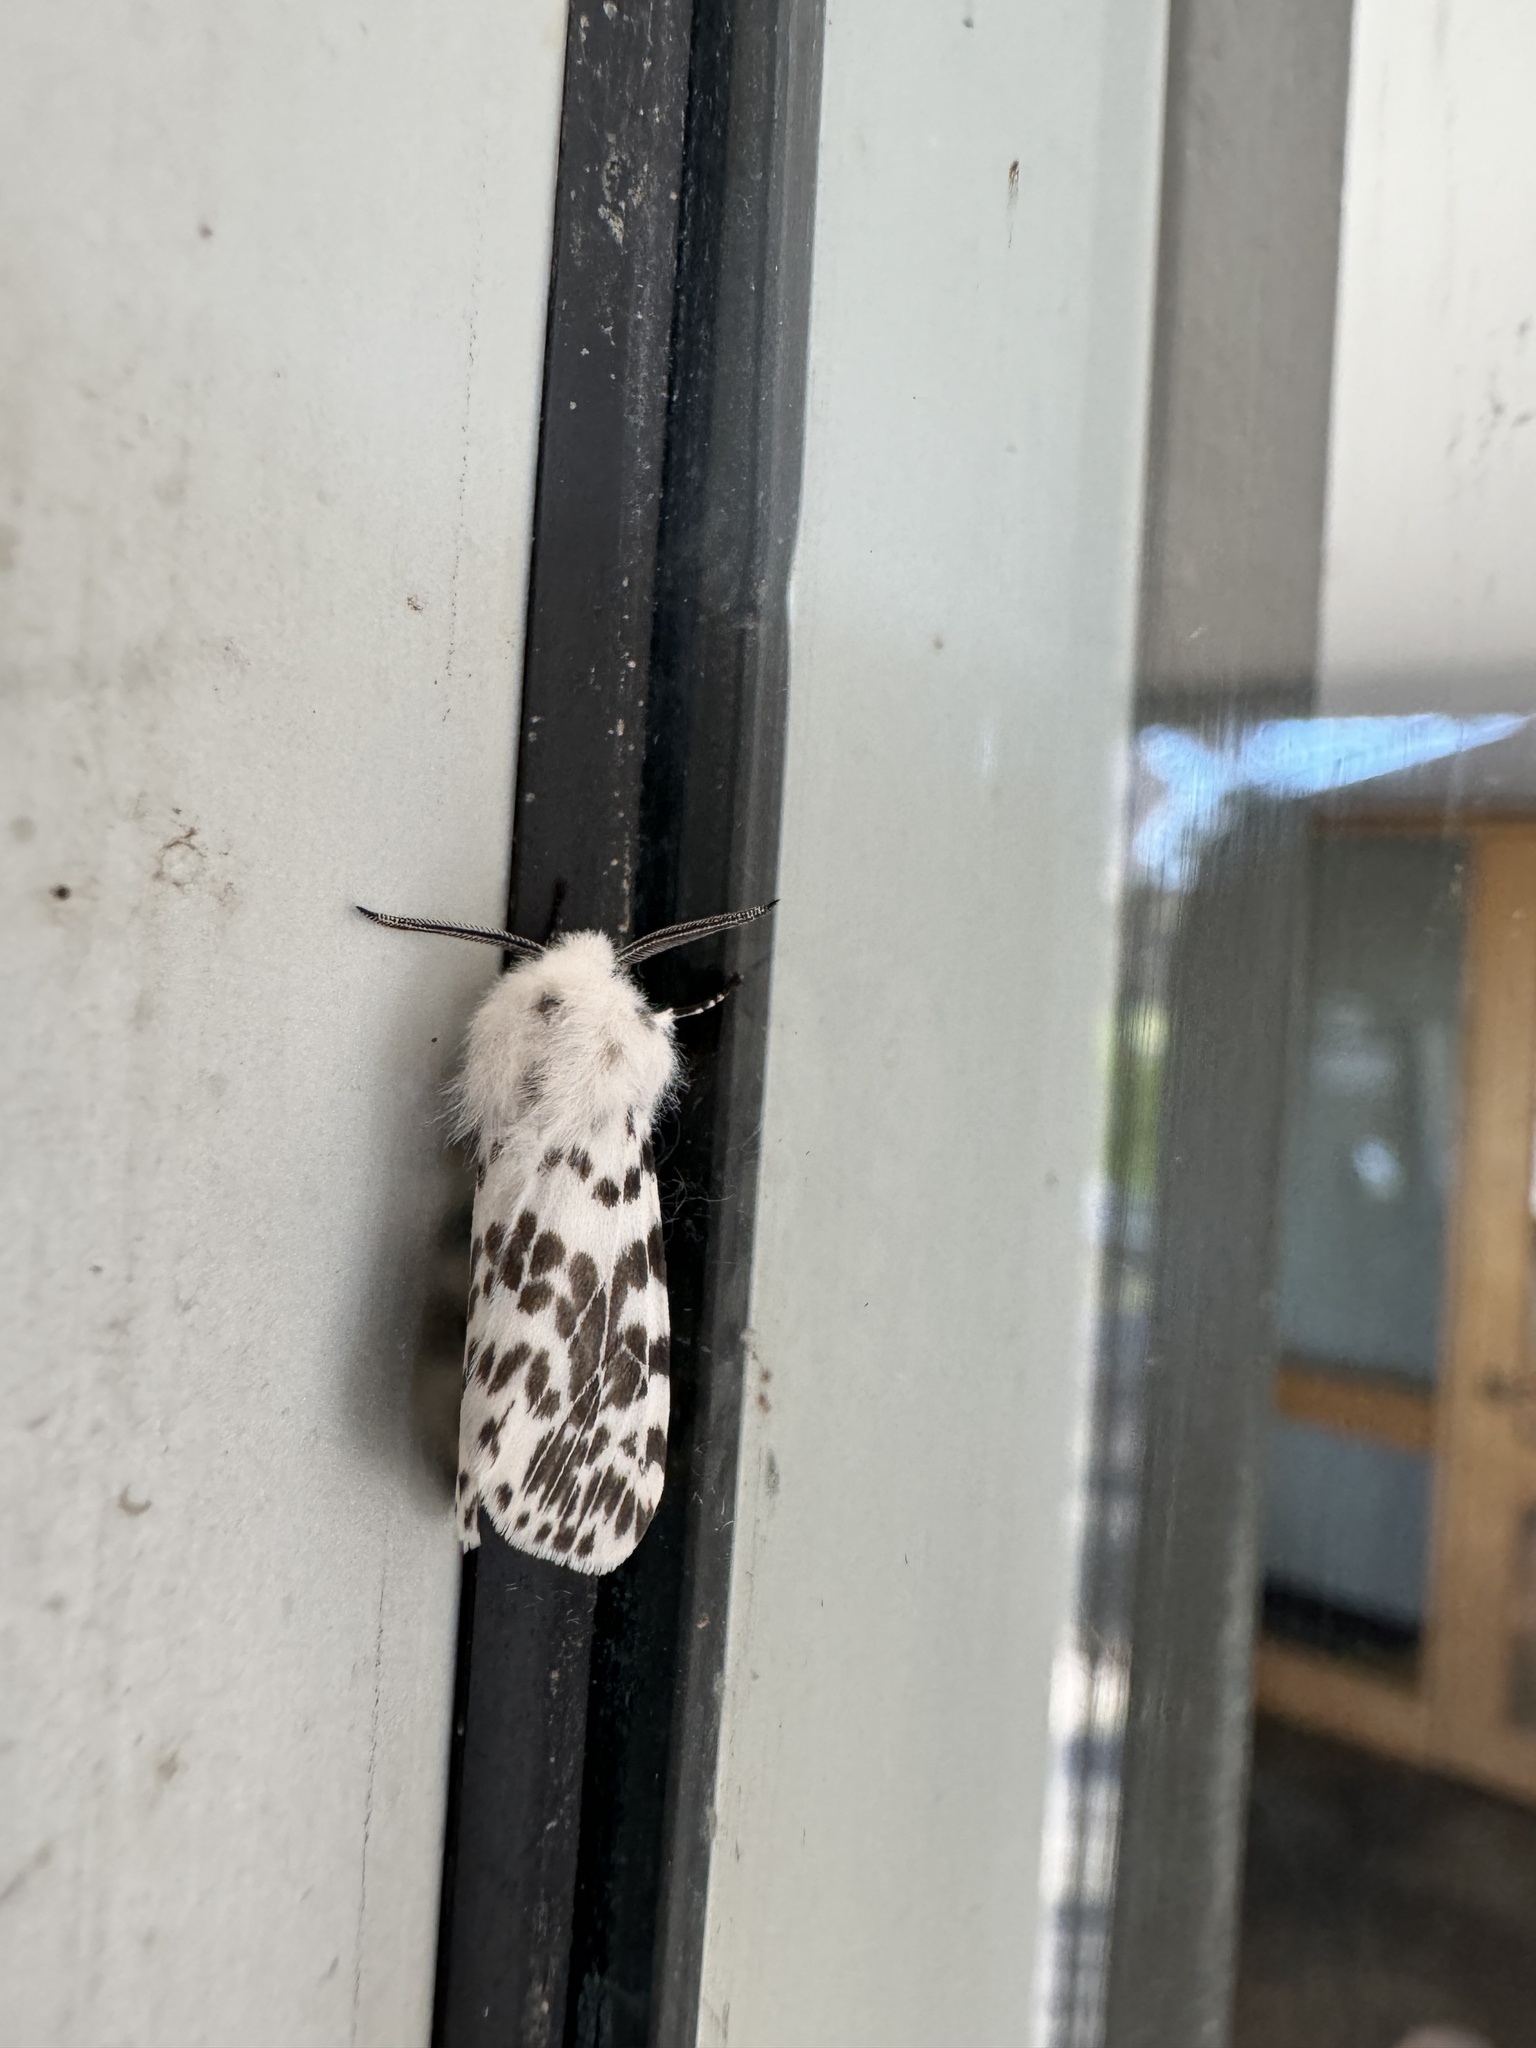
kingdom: Animalia
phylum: Arthropoda
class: Insecta
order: Lepidoptera
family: Erebidae
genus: Hyphantria
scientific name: Hyphantria cunea
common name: American white moth
